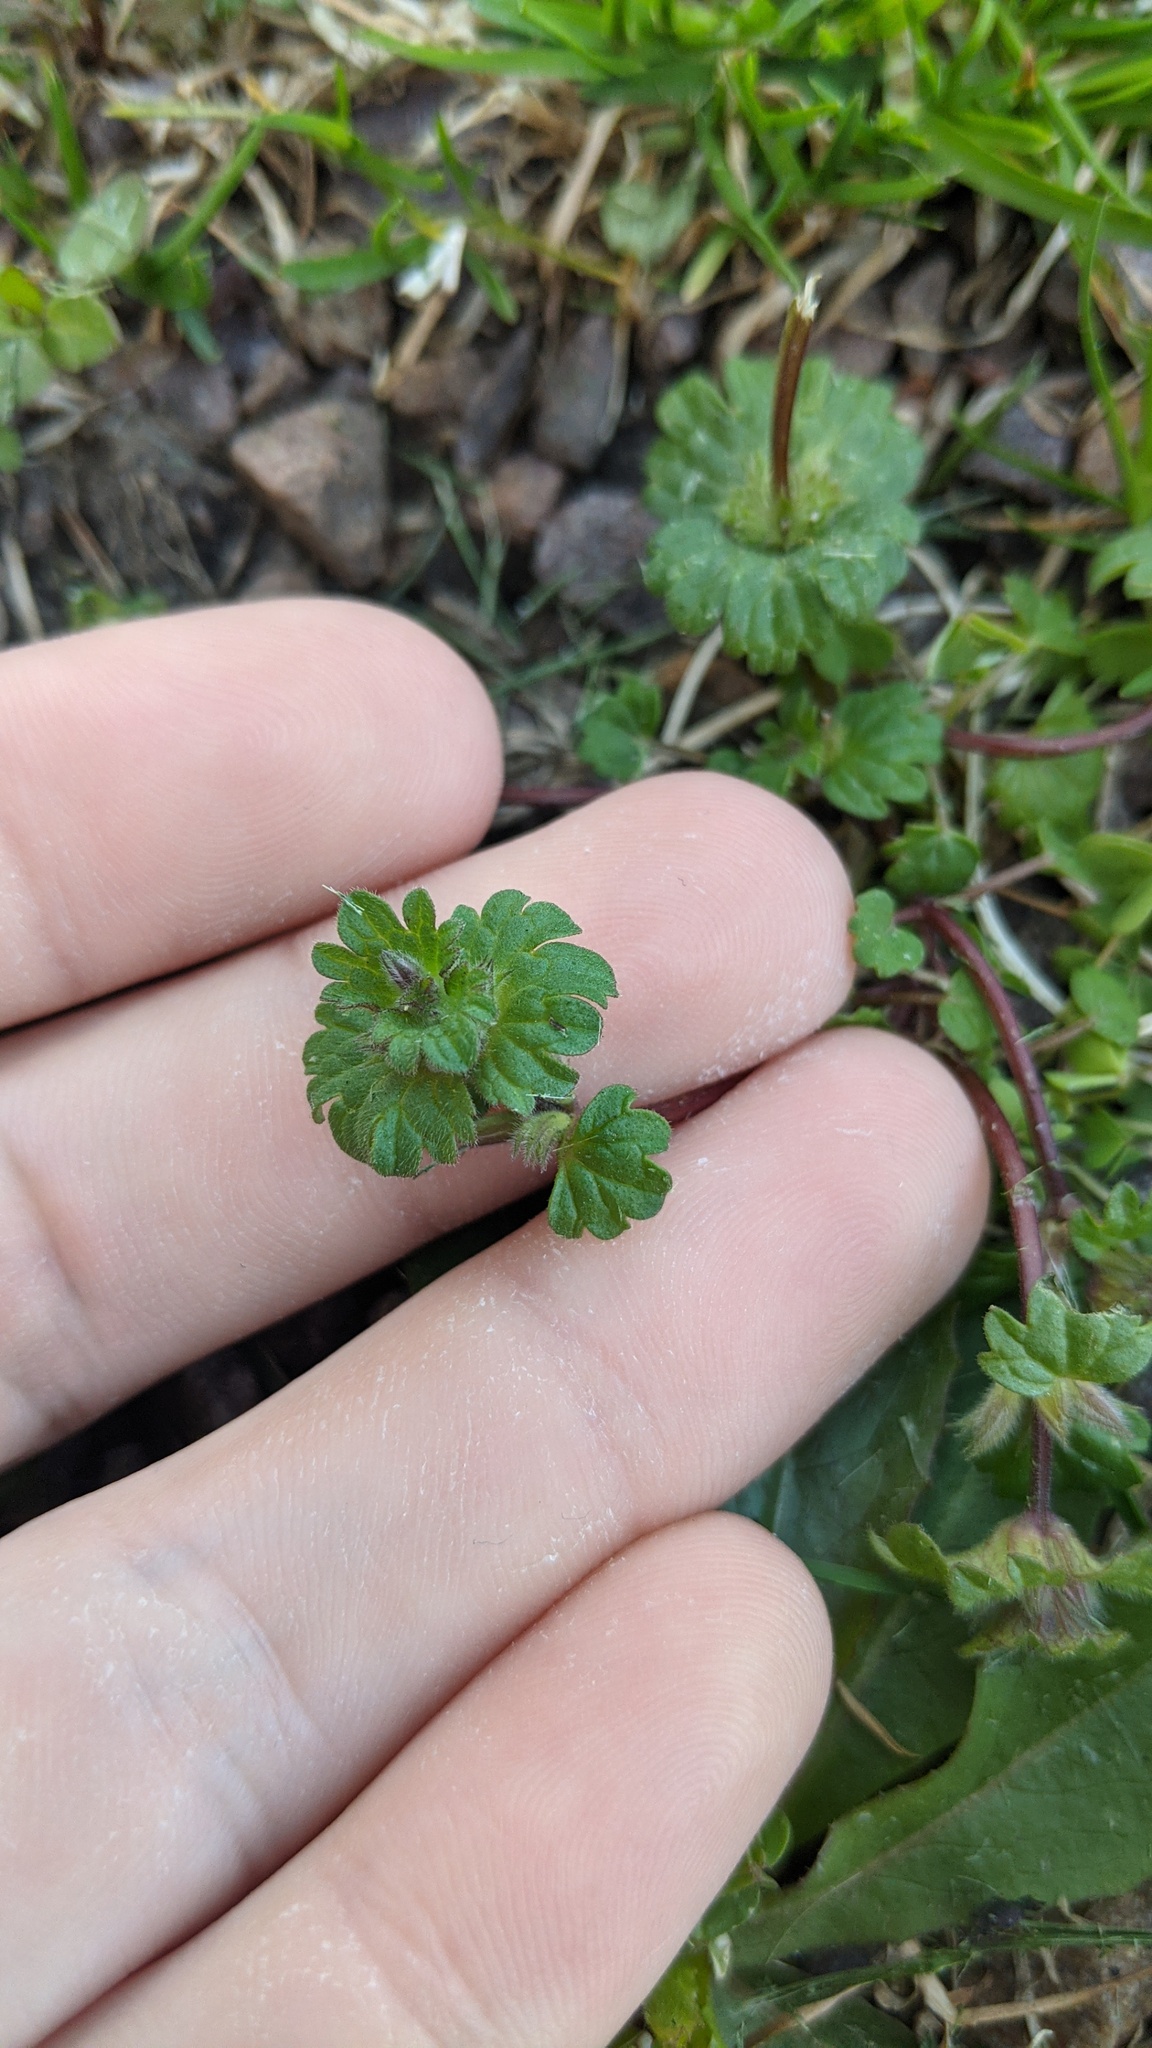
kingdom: Plantae
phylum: Tracheophyta
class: Magnoliopsida
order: Lamiales
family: Lamiaceae
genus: Lamium
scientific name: Lamium amplexicaule
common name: Henbit dead-nettle
